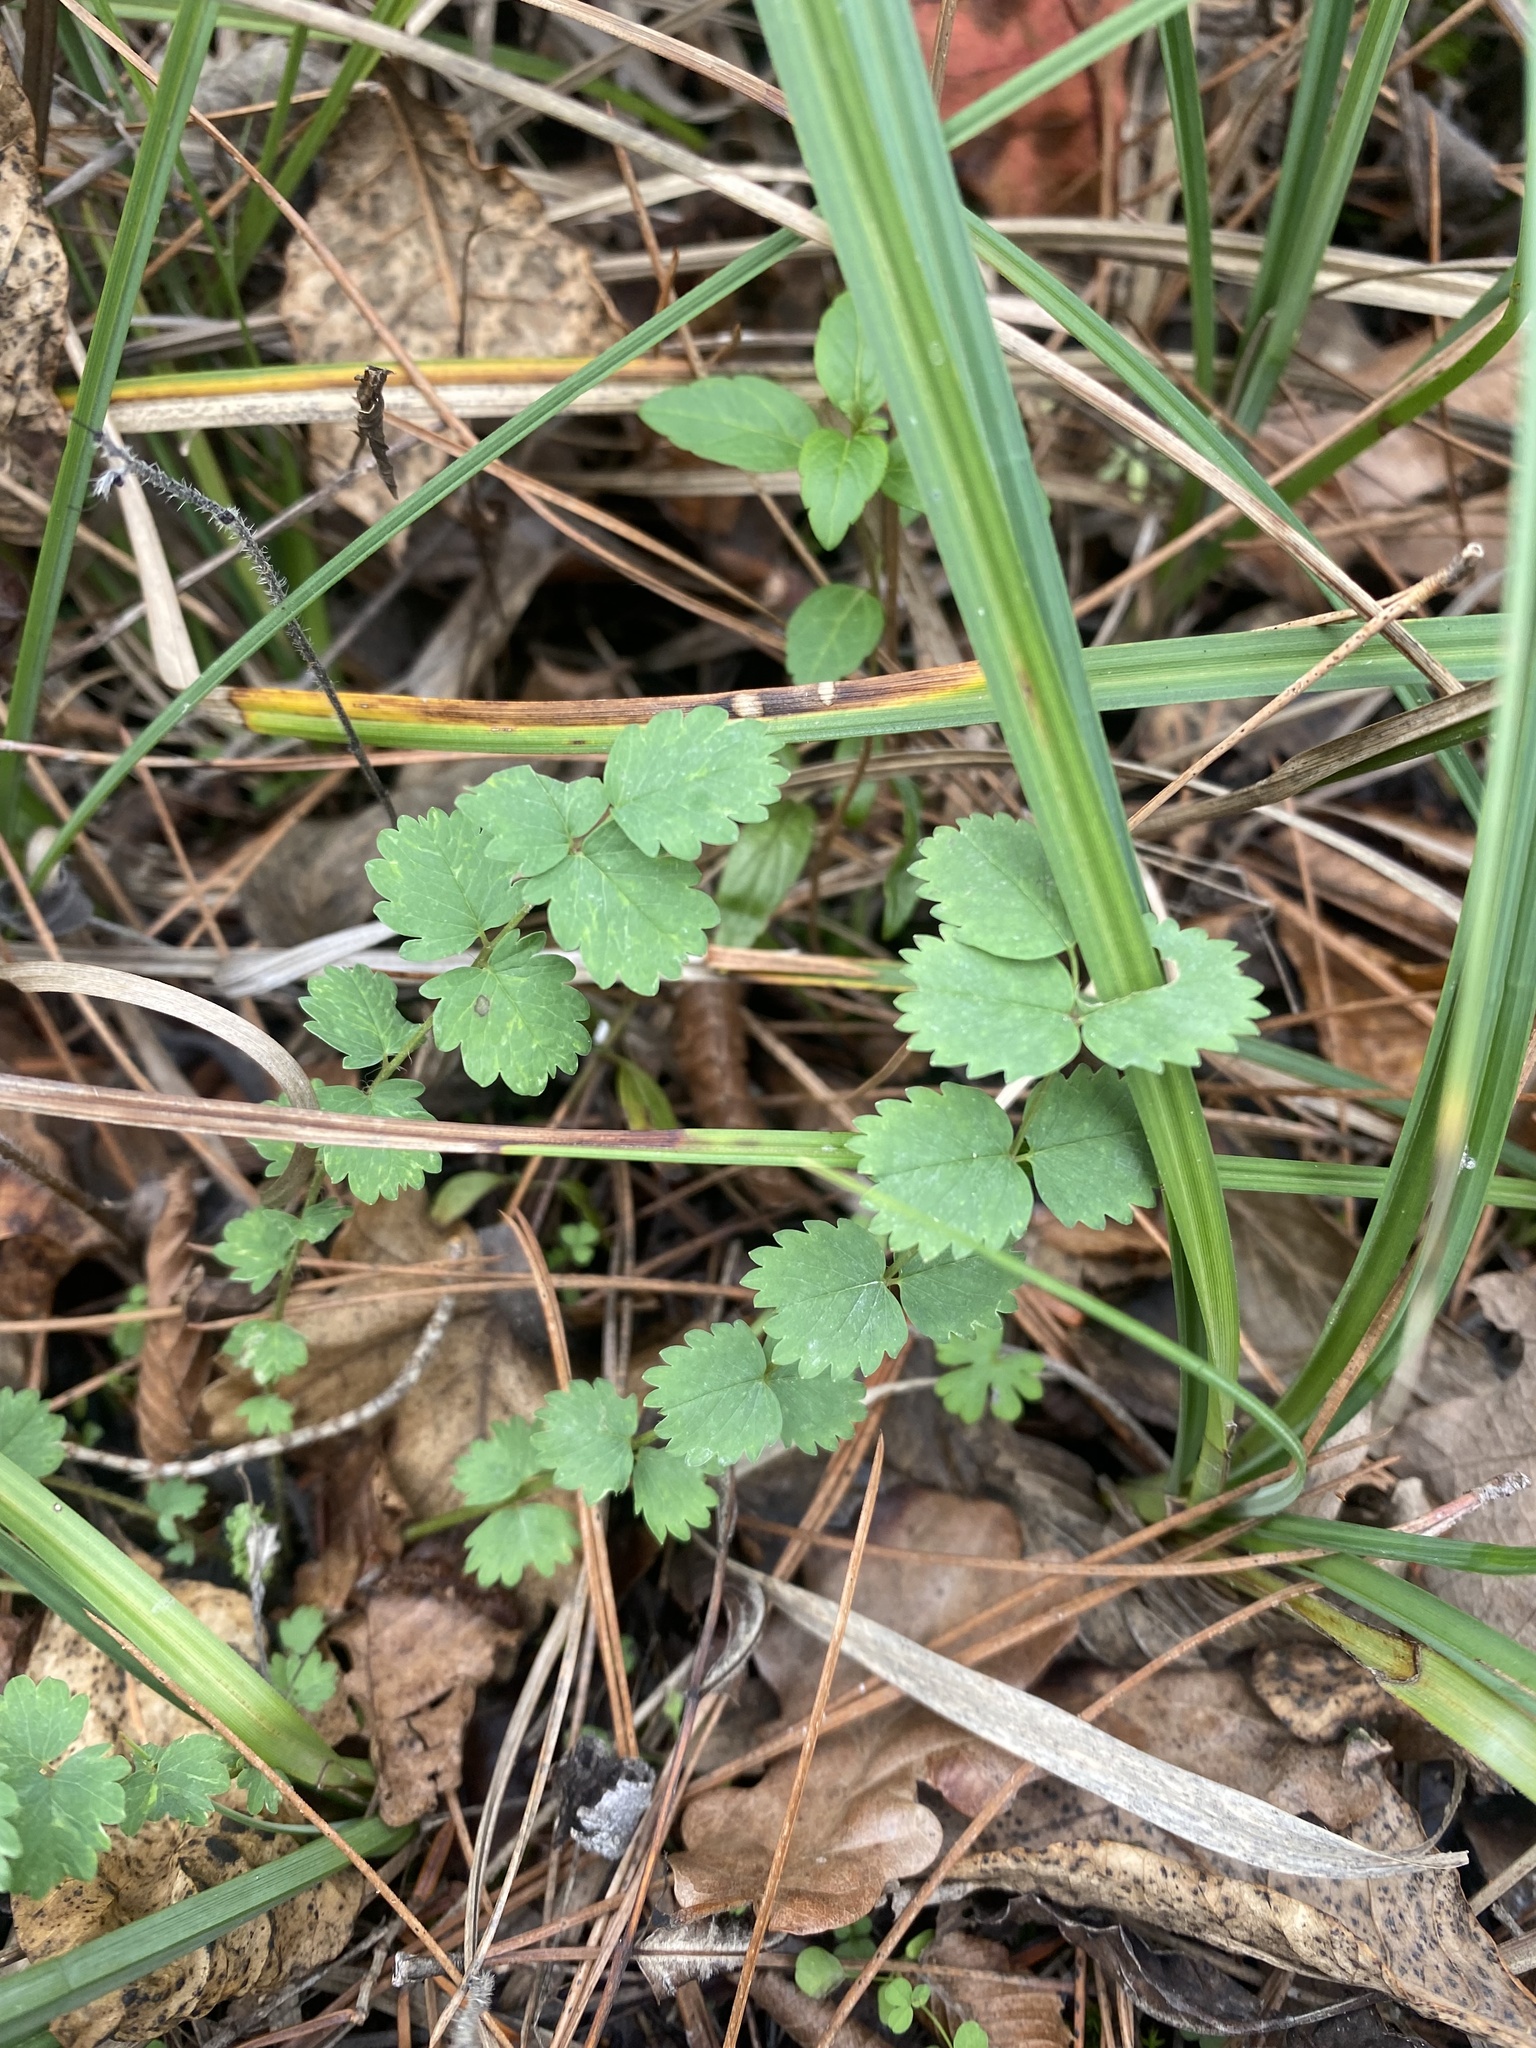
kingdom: Plantae
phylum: Tracheophyta
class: Magnoliopsida
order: Rosales
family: Rosaceae
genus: Poterium
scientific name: Poterium sanguisorba
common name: Salad burnet
